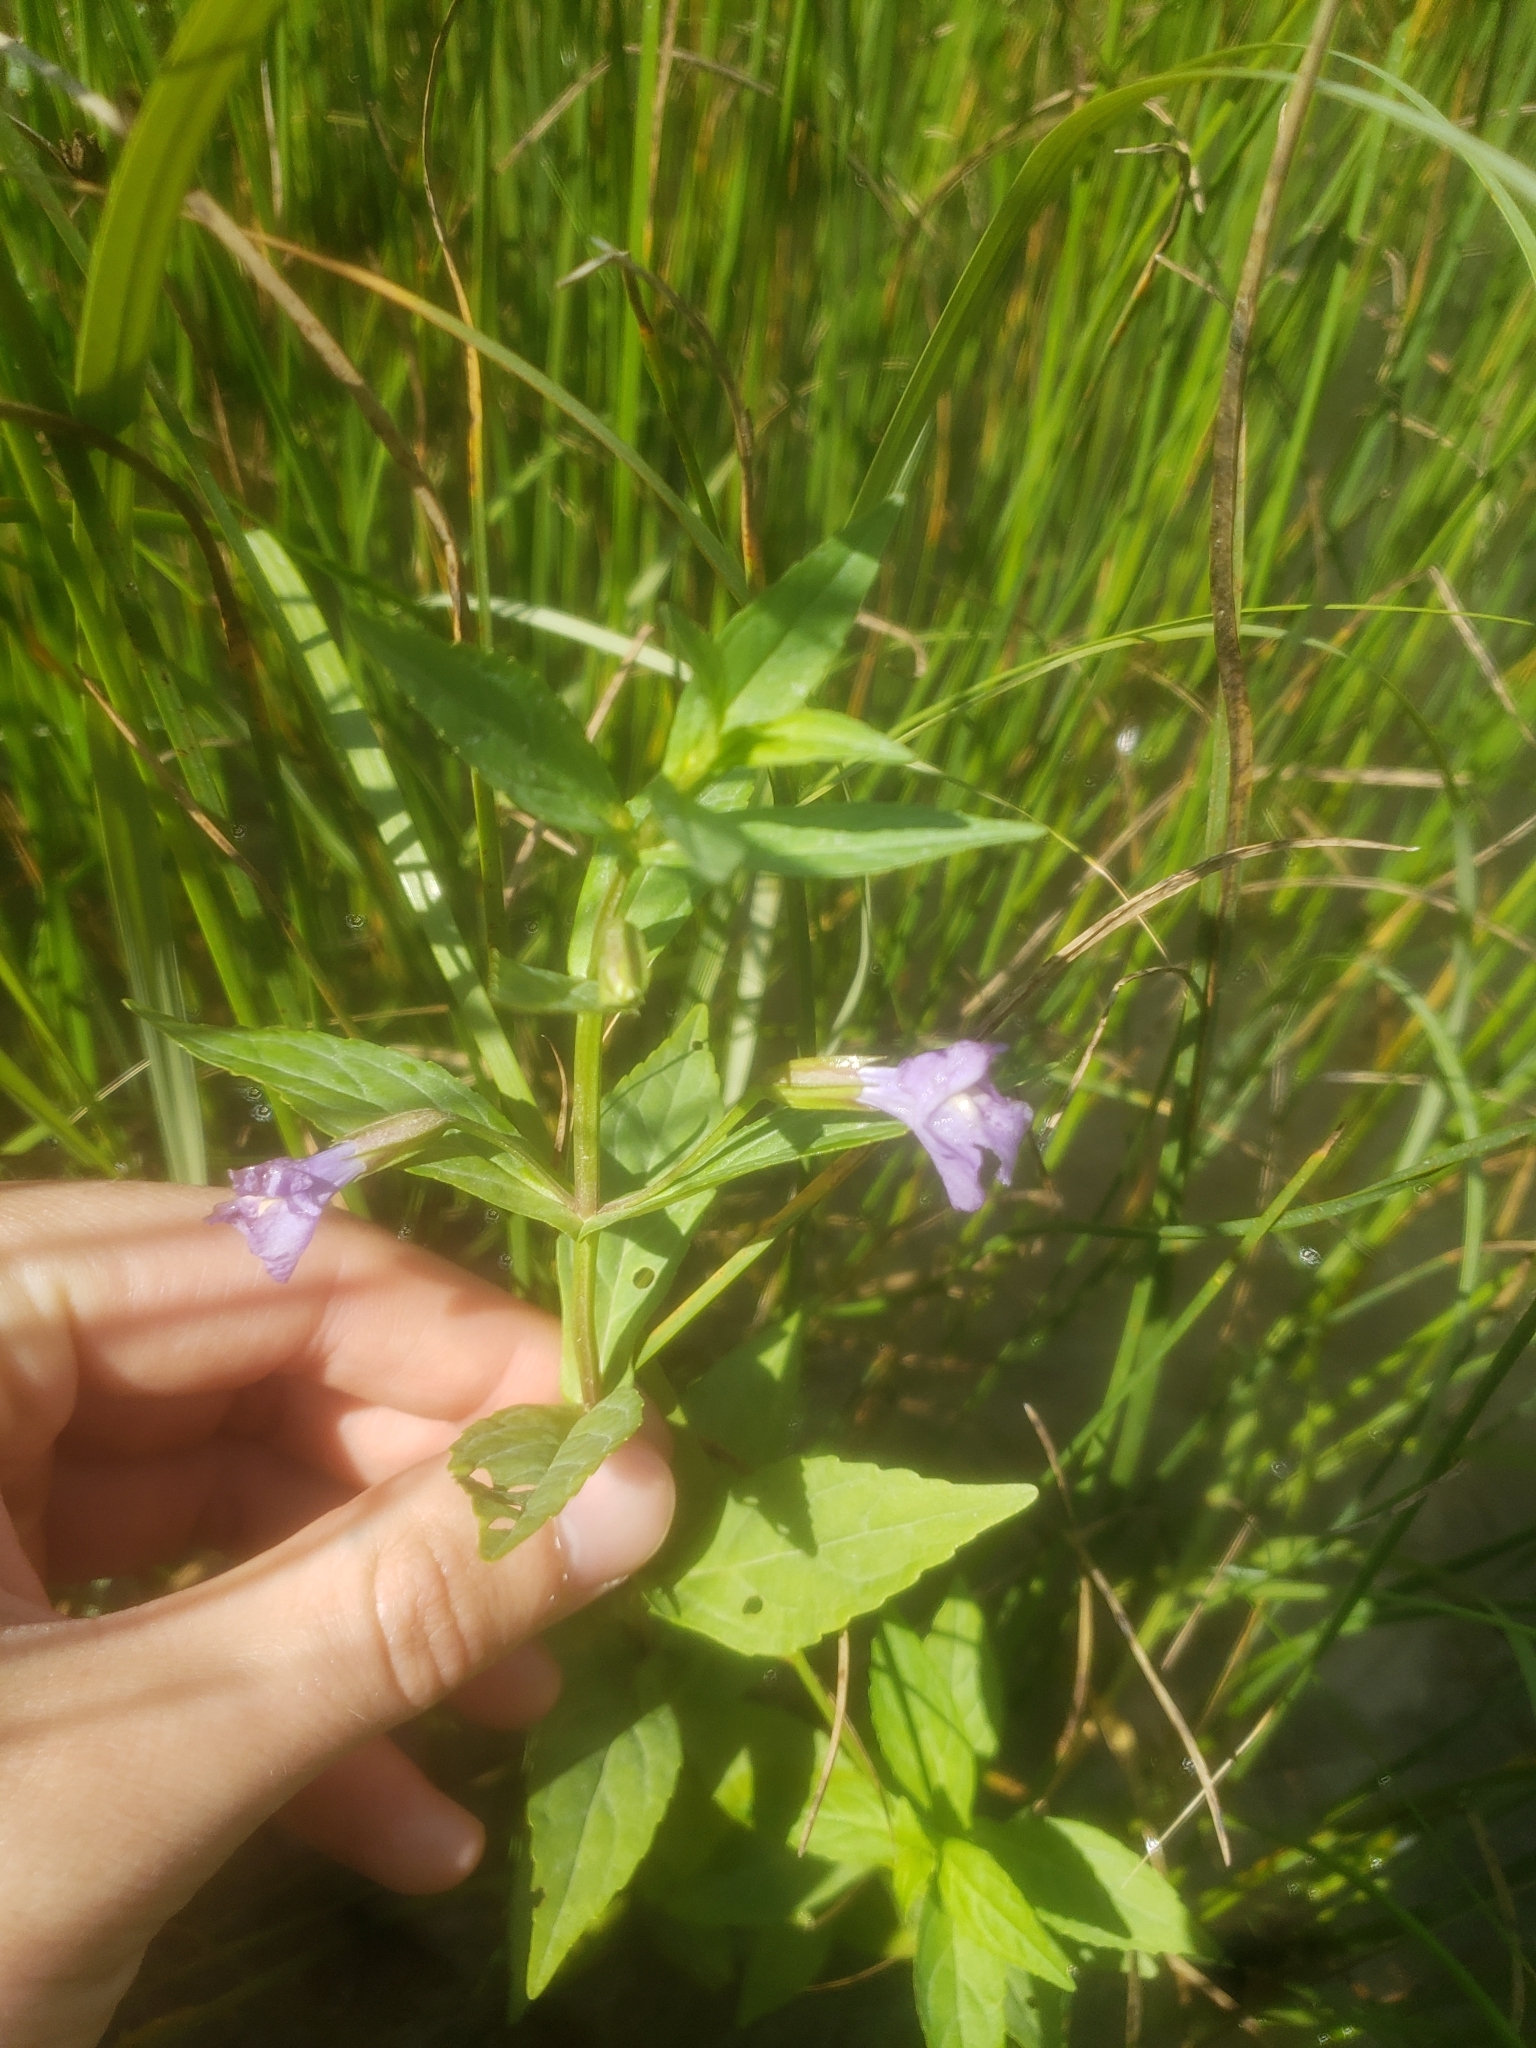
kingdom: Plantae
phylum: Tracheophyta
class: Magnoliopsida
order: Lamiales
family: Phrymaceae
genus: Mimulus
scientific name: Mimulus ringens
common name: Allegheny monkeyflower
